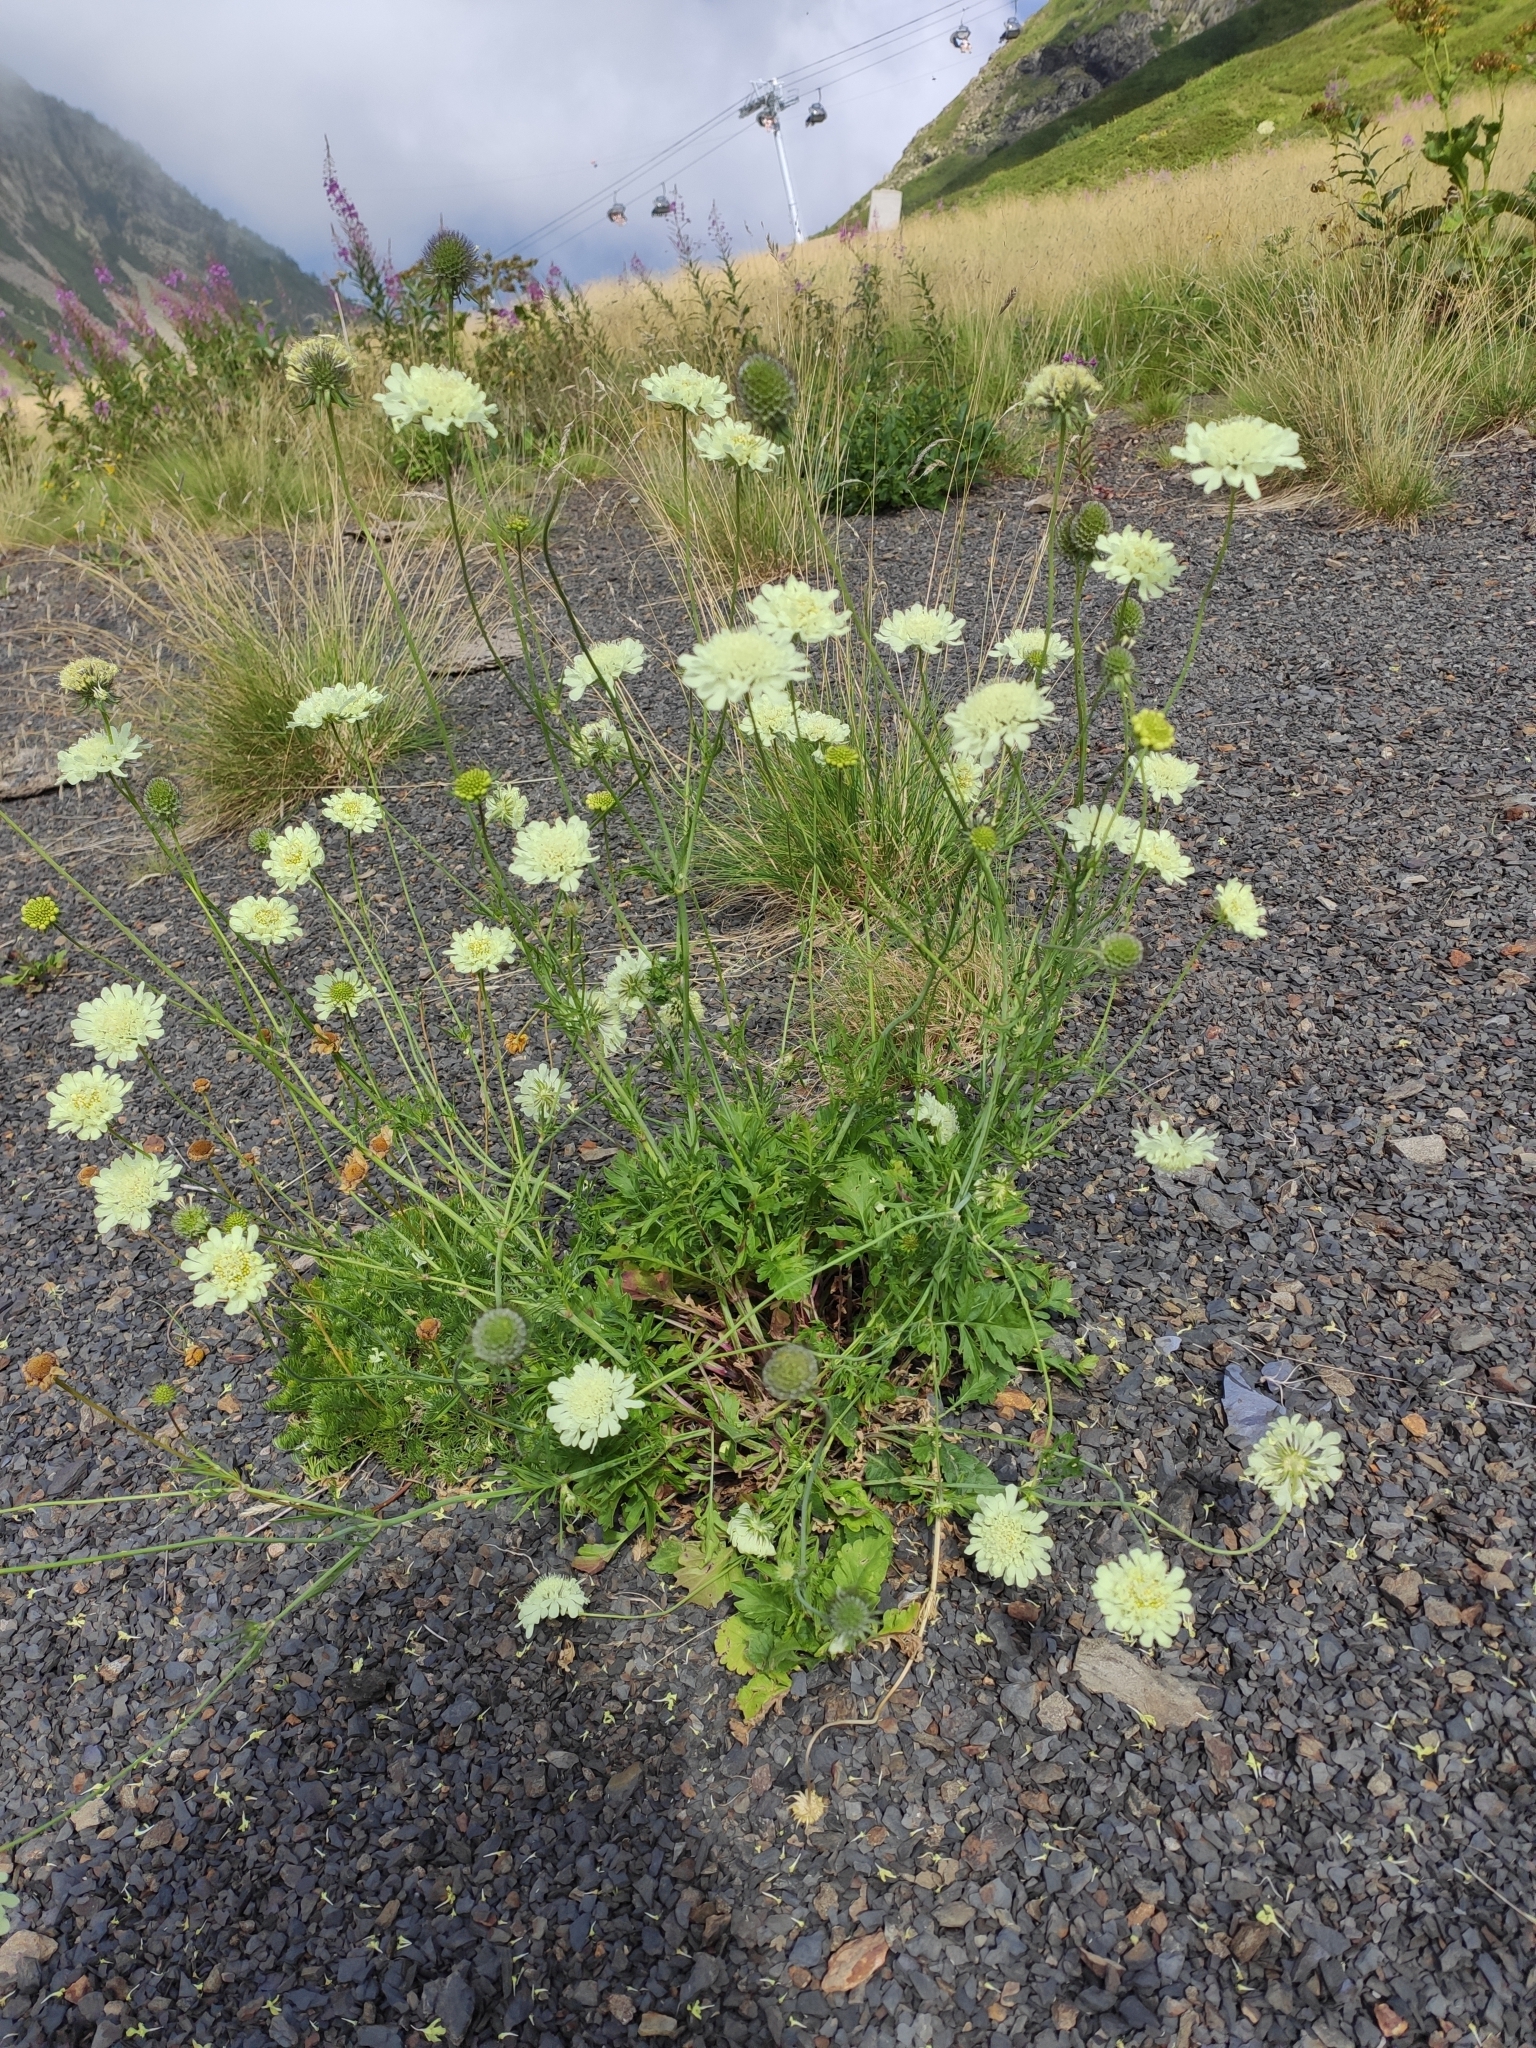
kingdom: Plantae
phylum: Tracheophyta
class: Magnoliopsida
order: Dipsacales
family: Caprifoliaceae
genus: Cephalaria
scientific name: Cephalaria gigantea
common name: Tatarian cephalaria
